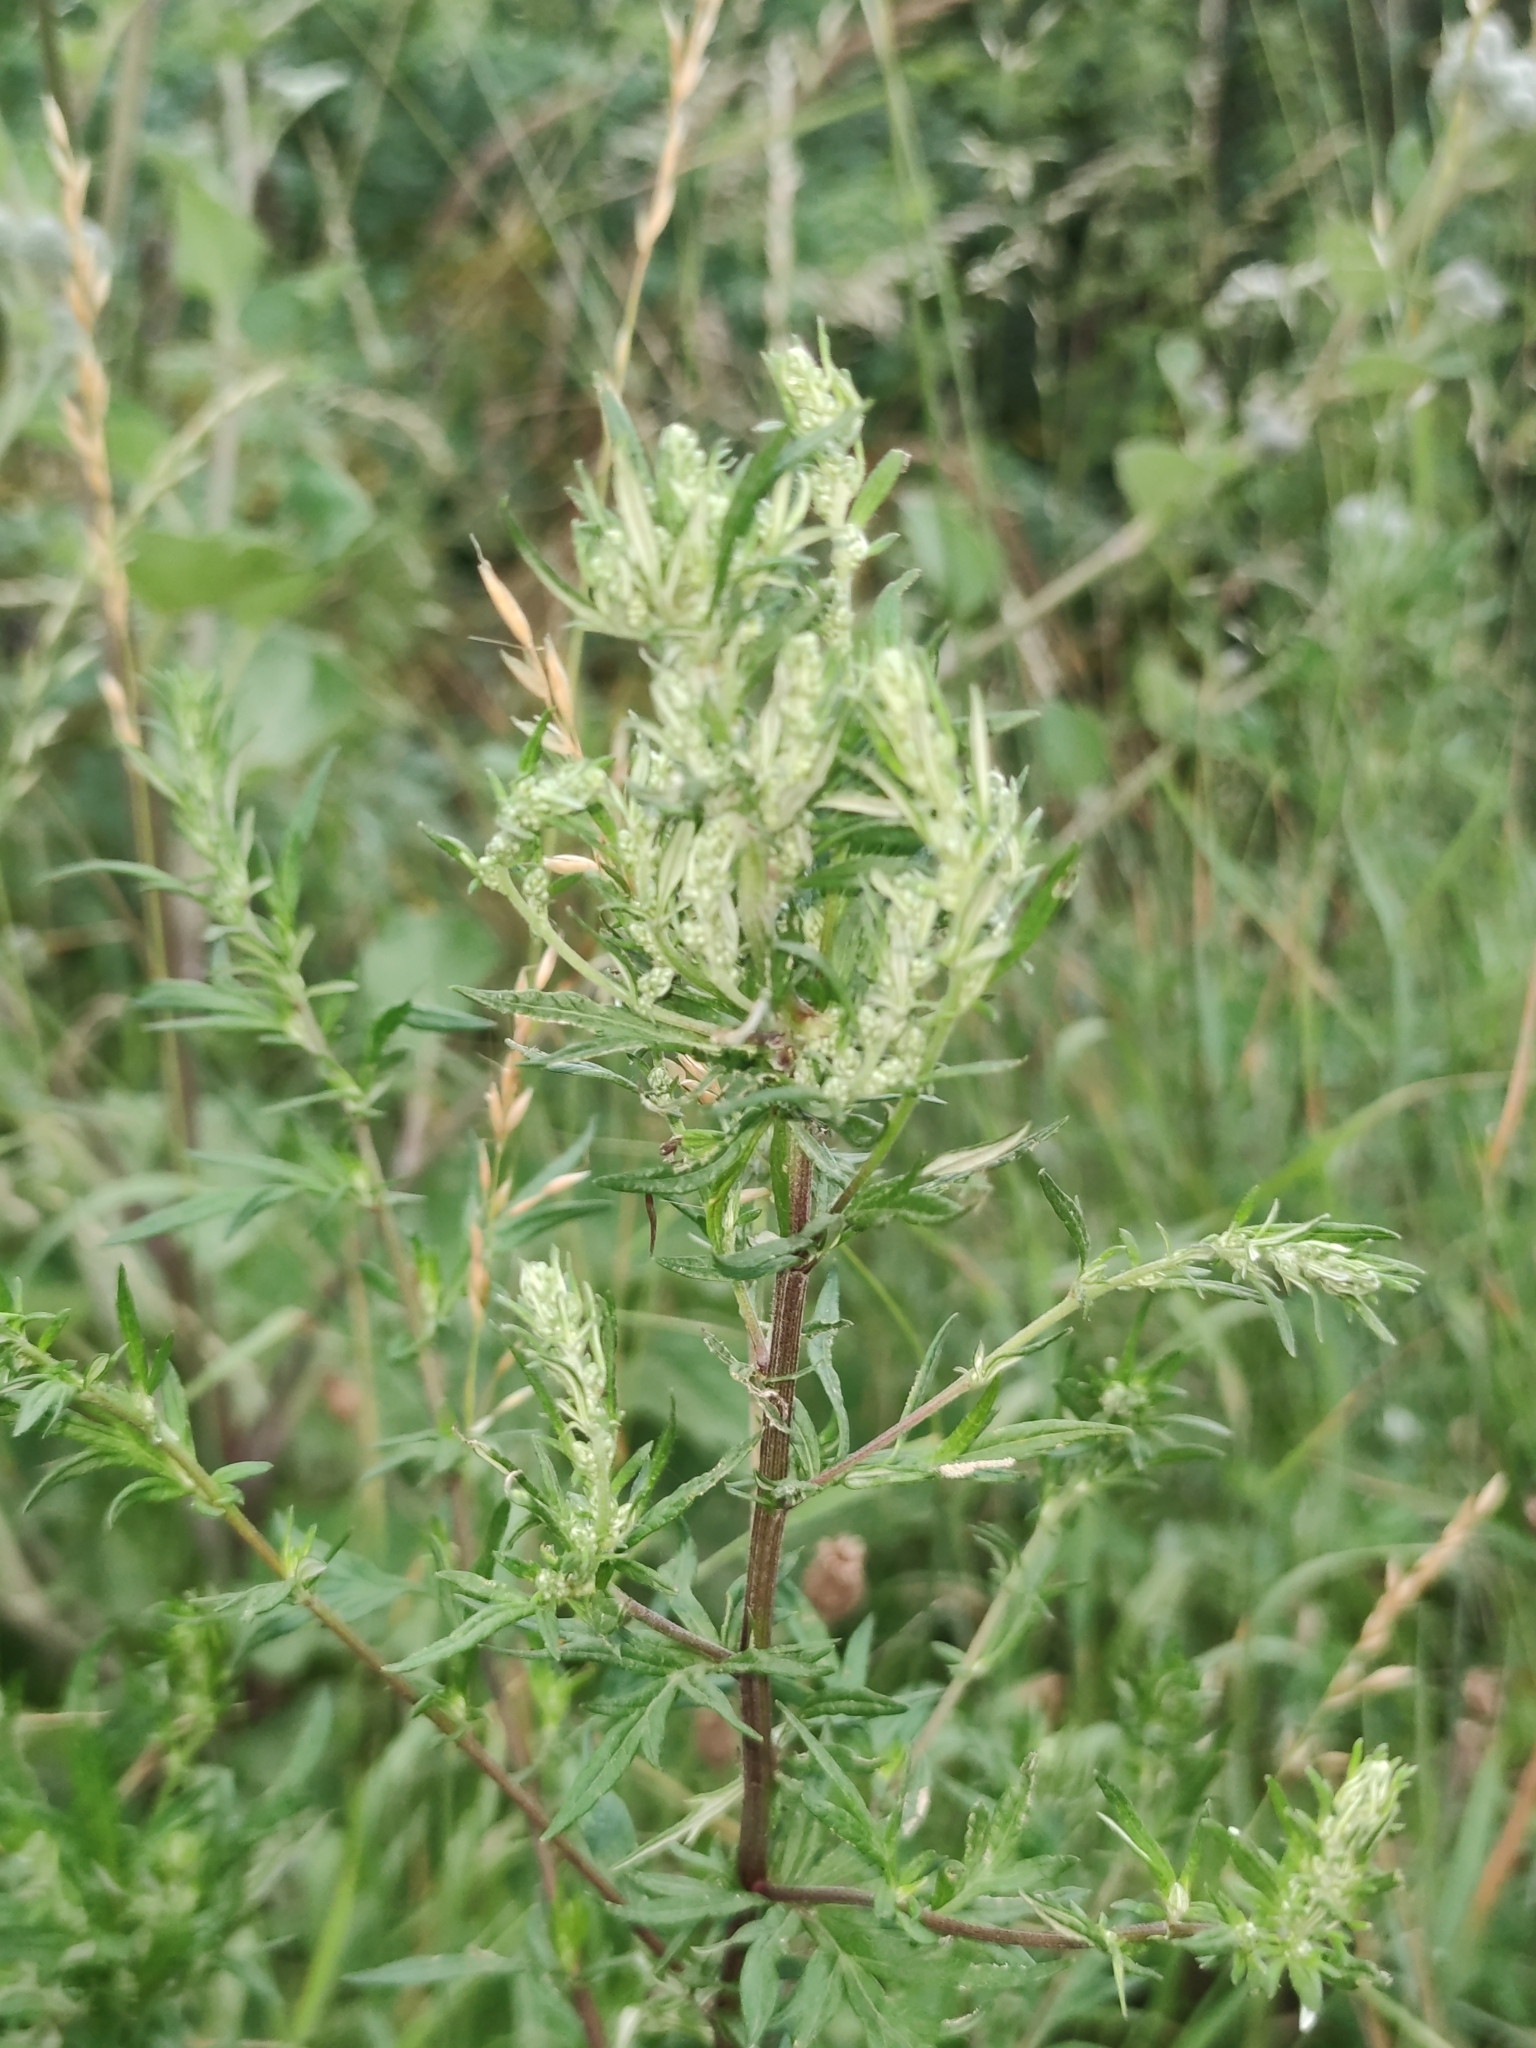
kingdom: Plantae
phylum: Tracheophyta
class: Magnoliopsida
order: Asterales
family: Asteraceae
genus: Artemisia
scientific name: Artemisia vulgaris
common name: Mugwort
